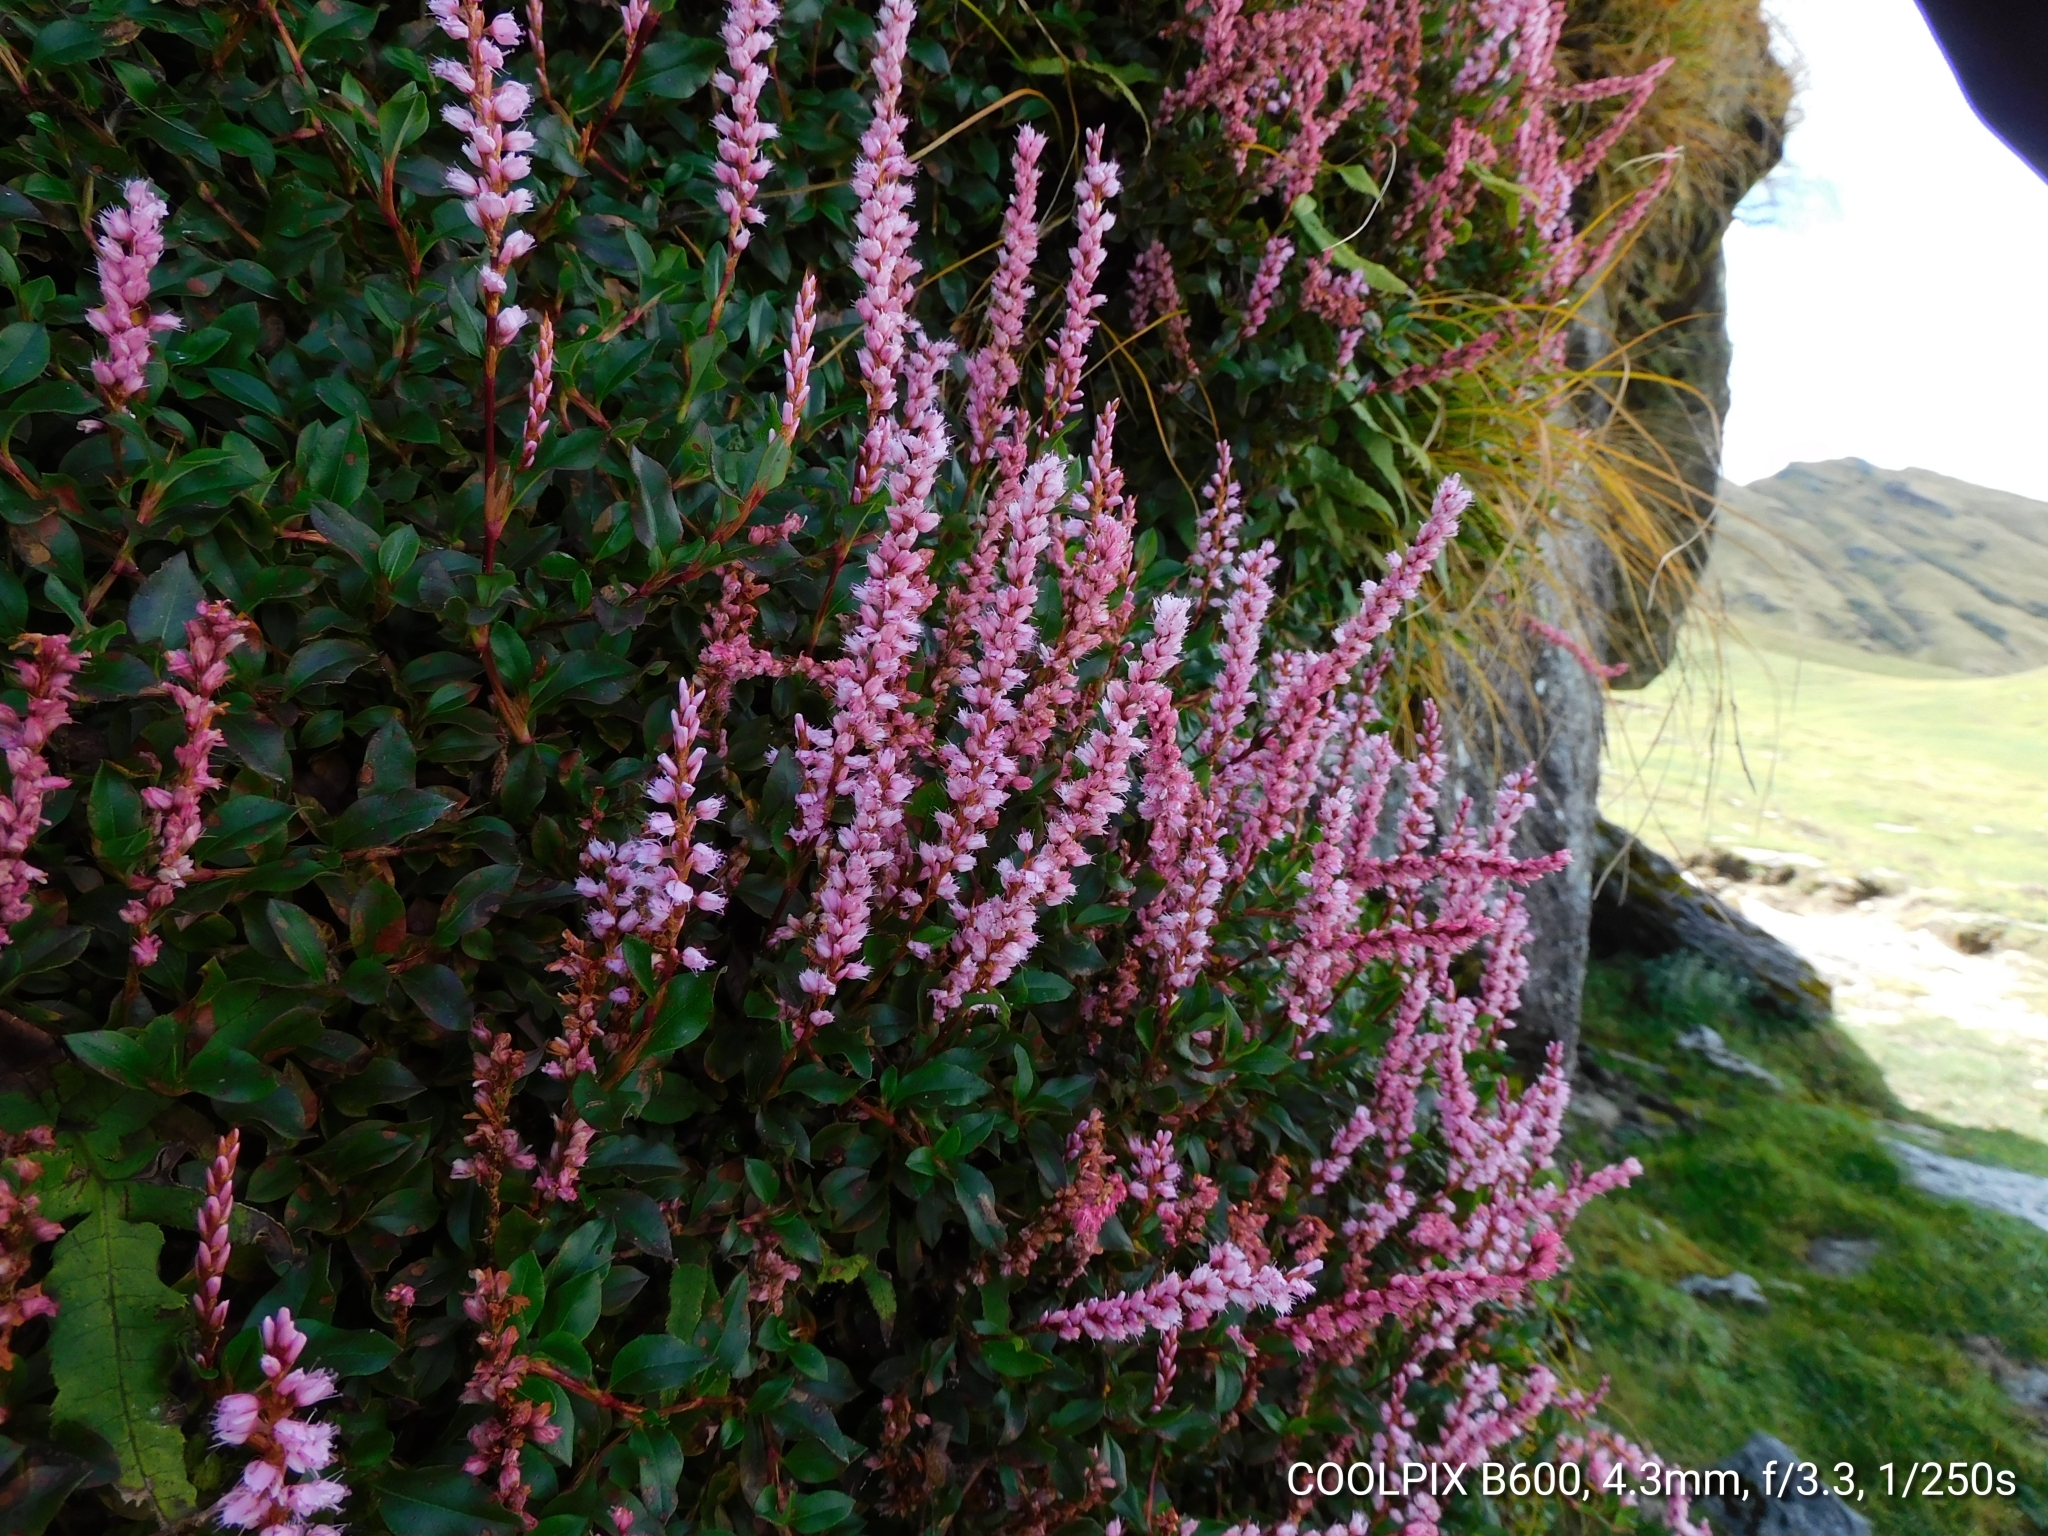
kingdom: Plantae
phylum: Tracheophyta
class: Magnoliopsida
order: Caryophyllales
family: Polygonaceae
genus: Bistorta
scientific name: Bistorta vacciniifolia
